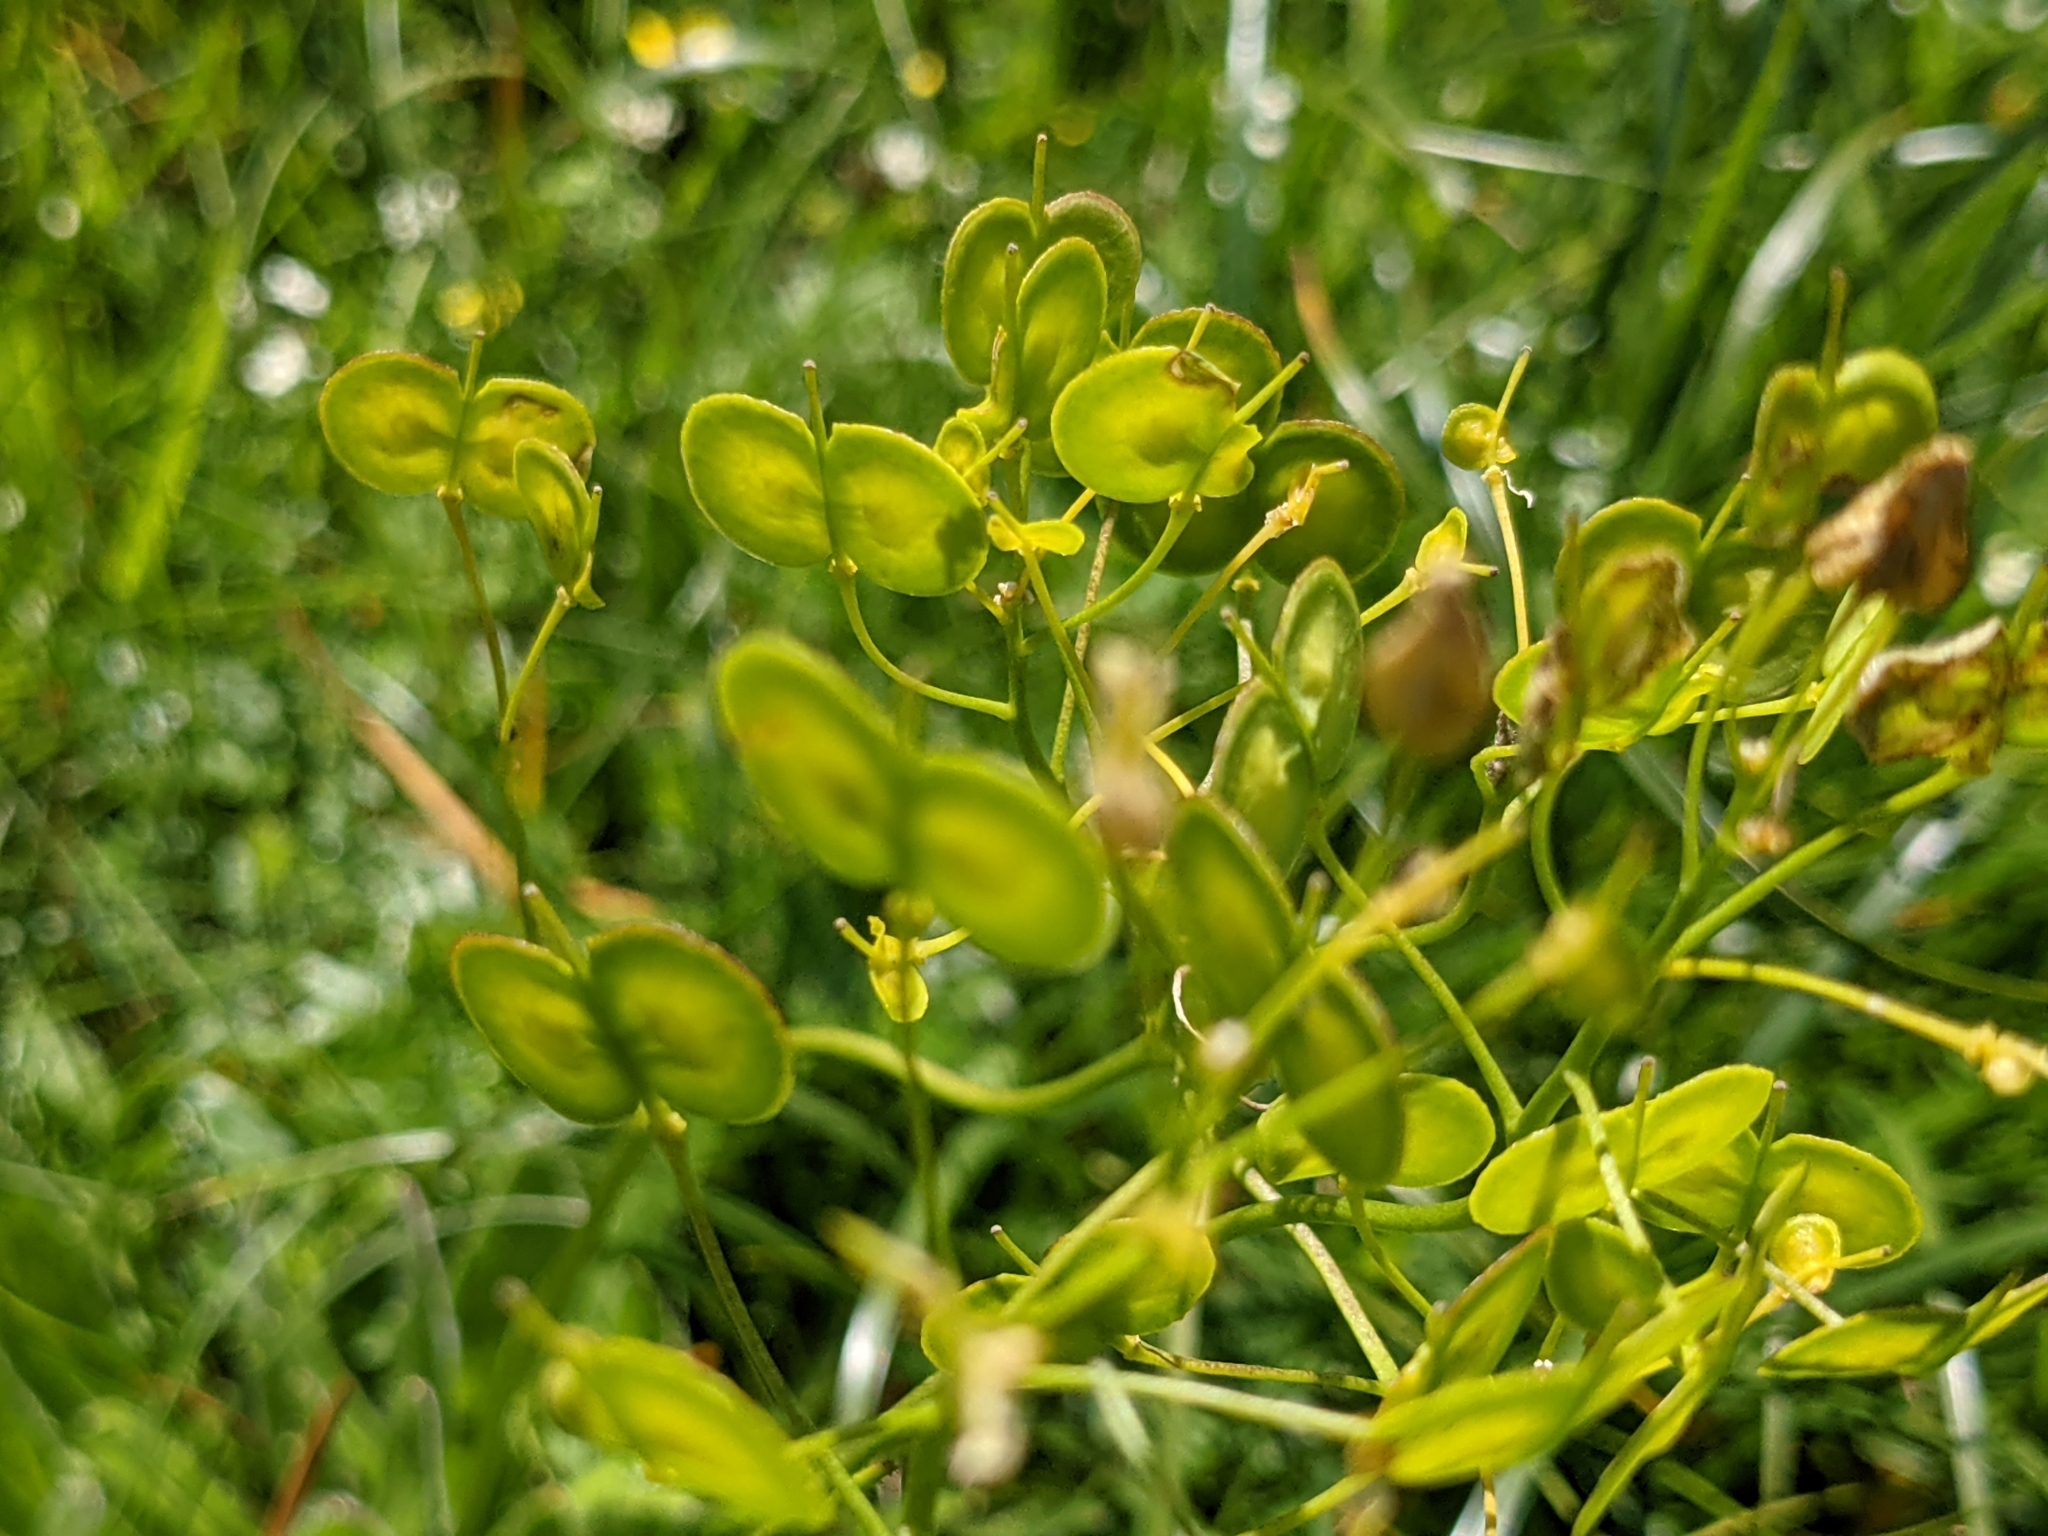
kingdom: Plantae
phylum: Tracheophyta
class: Magnoliopsida
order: Brassicales
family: Brassicaceae
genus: Biscutella
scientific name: Biscutella laevigata
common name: Buckler mustard
